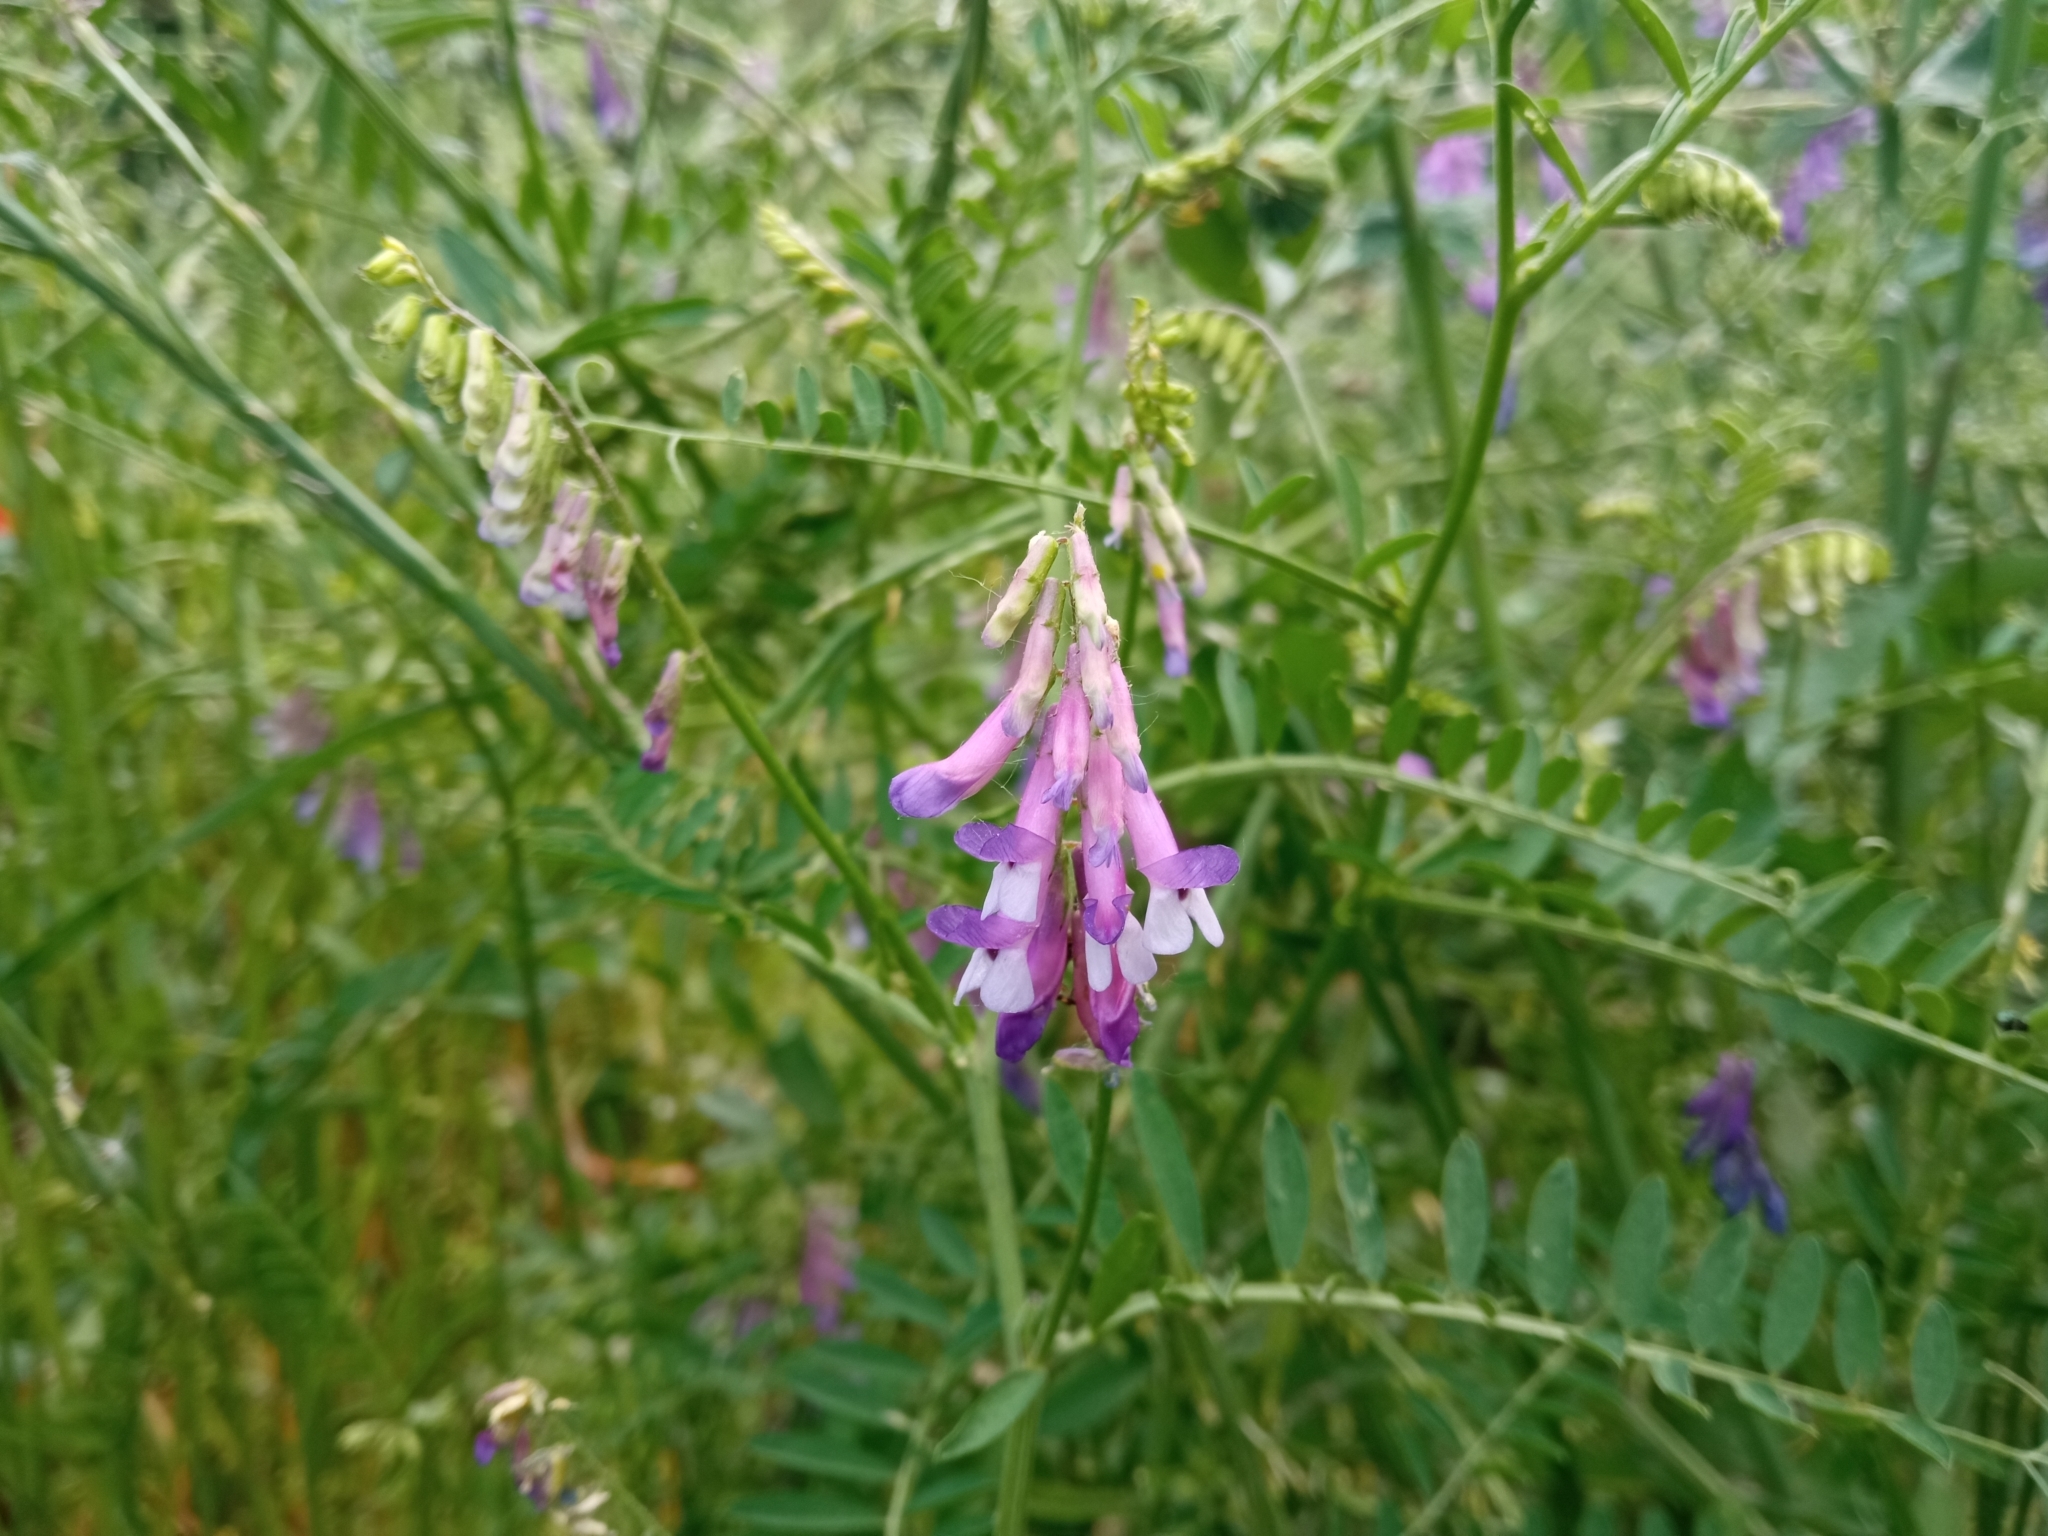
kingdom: Plantae
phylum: Tracheophyta
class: Magnoliopsida
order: Fabales
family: Fabaceae
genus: Vicia
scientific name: Vicia villosa
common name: Fodder vetch
